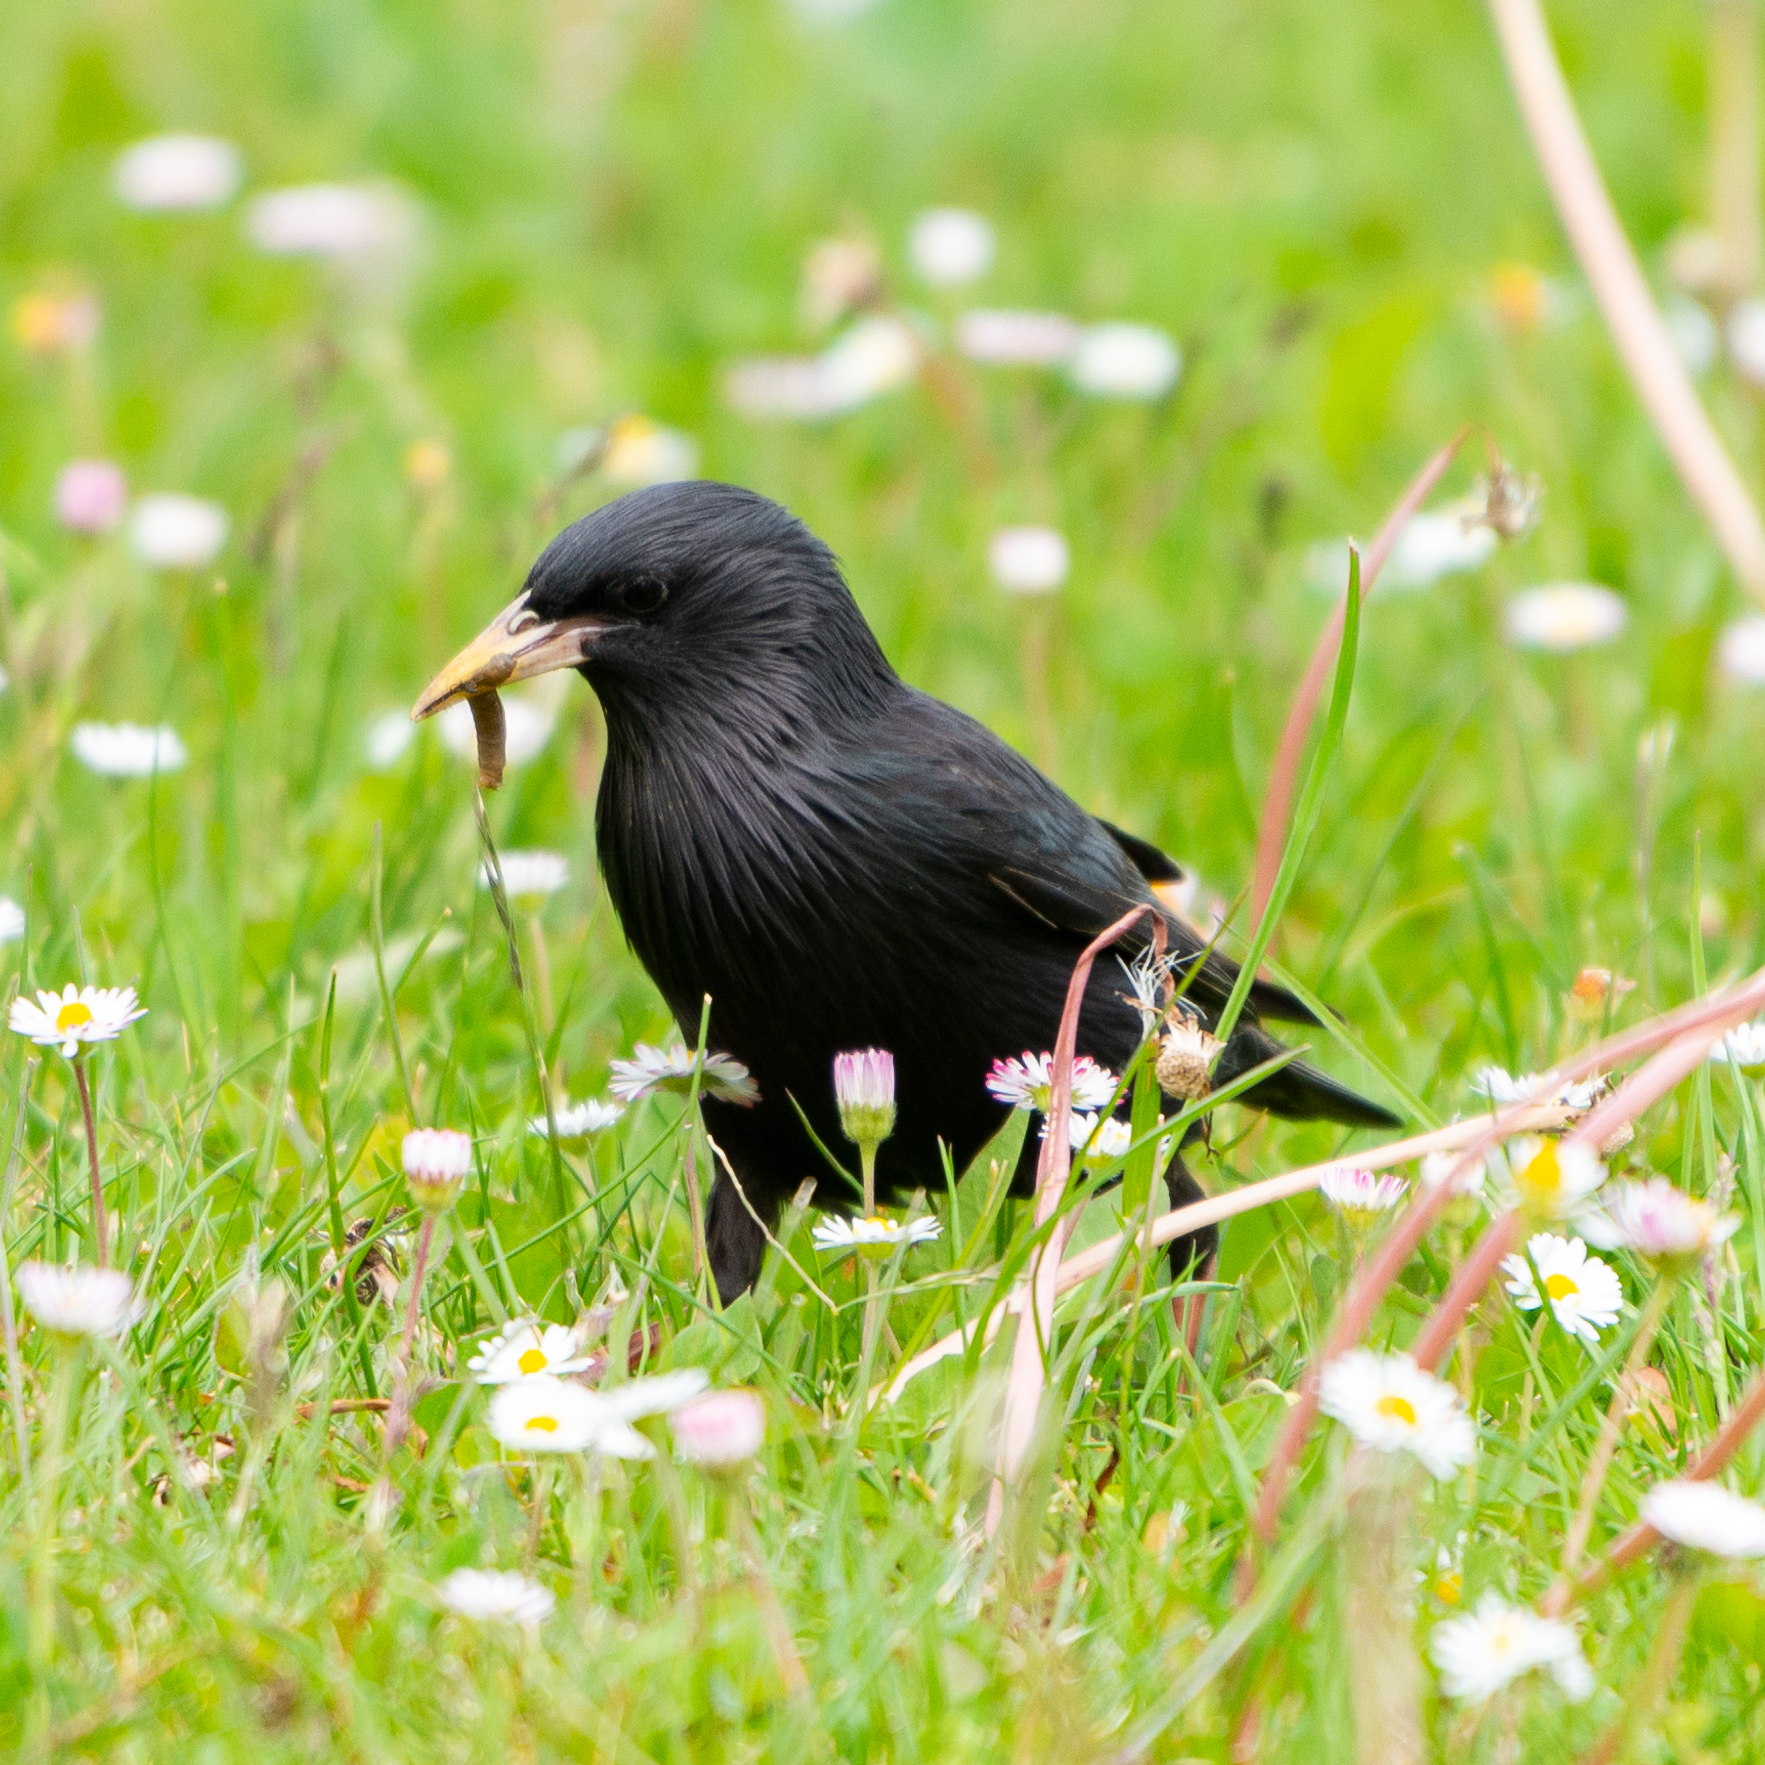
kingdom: Animalia
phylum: Chordata
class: Aves
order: Passeriformes
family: Sturnidae
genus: Sturnus
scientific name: Sturnus unicolor
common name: Spotless starling
